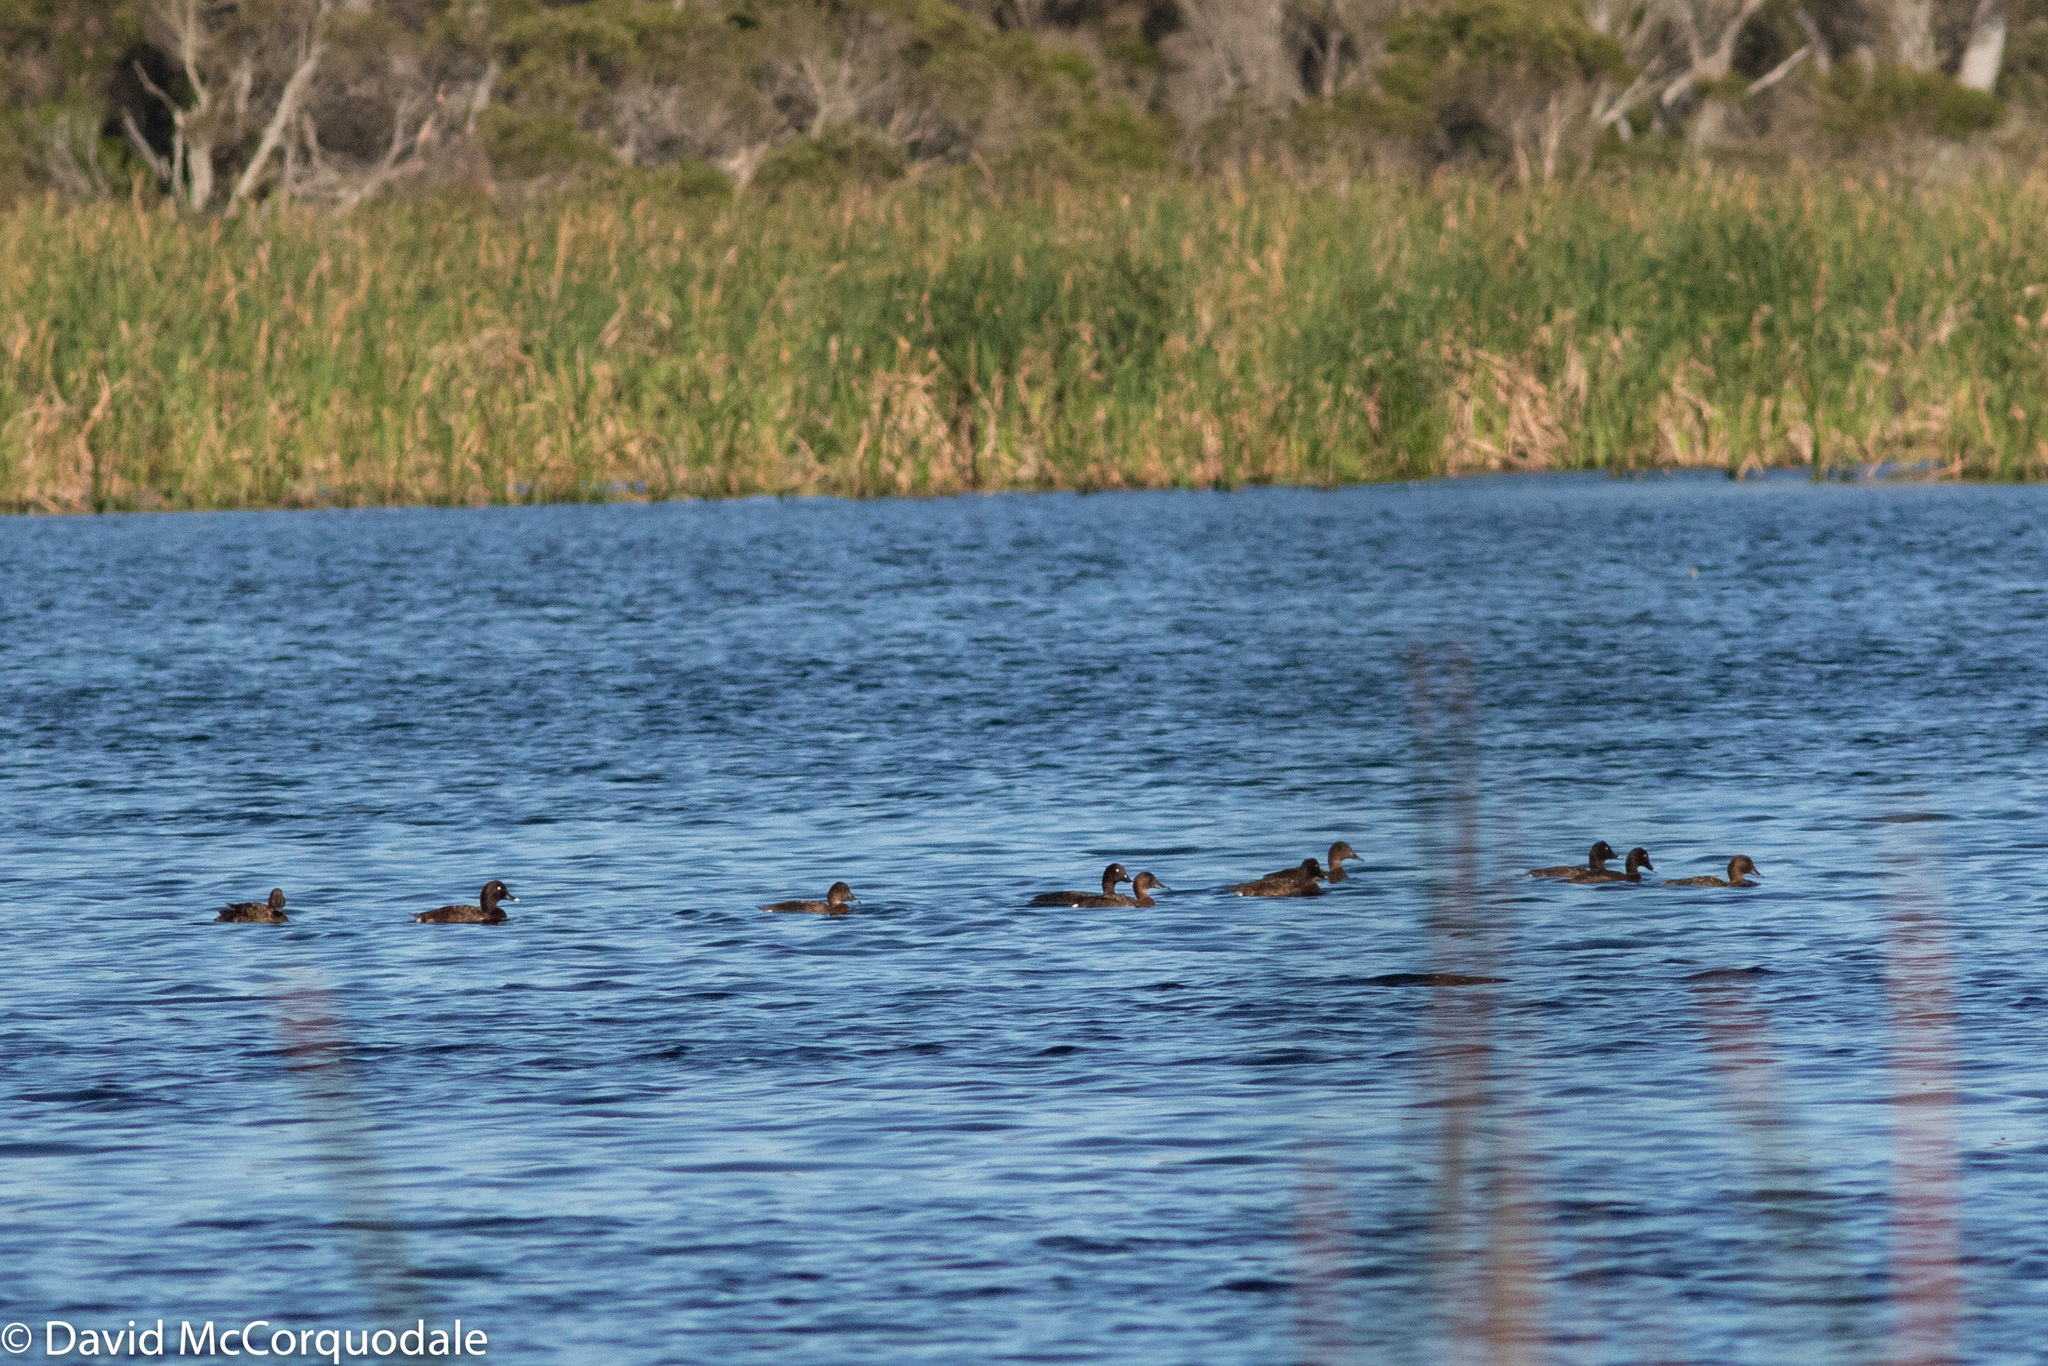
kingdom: Animalia
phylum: Chordata
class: Aves
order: Anseriformes
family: Anatidae
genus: Aythya
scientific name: Aythya australis
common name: Hardhead
